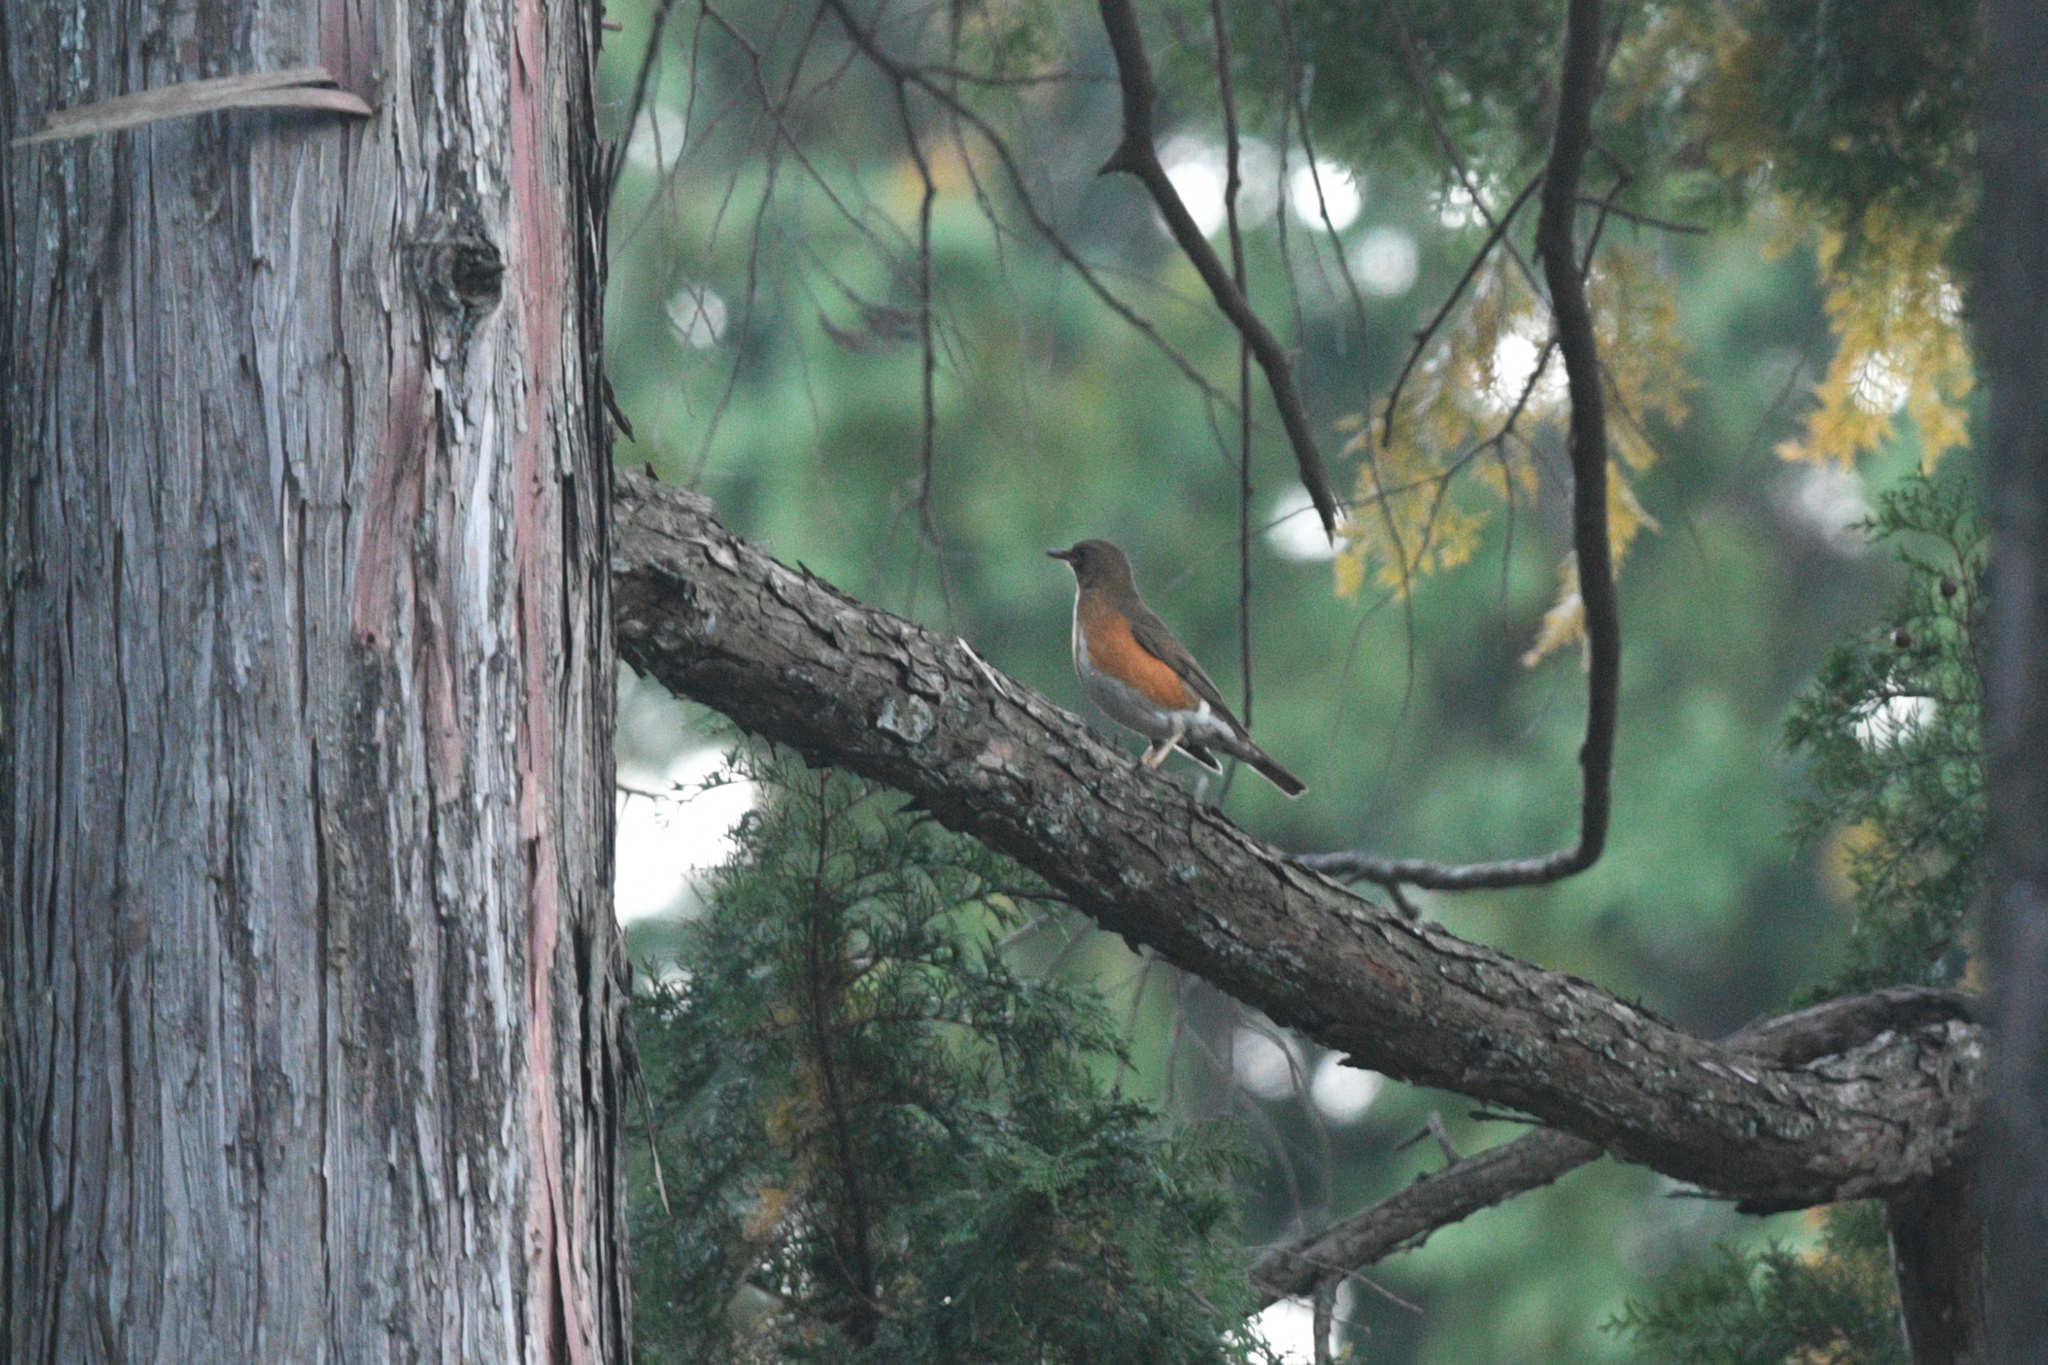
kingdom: Animalia
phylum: Chordata
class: Aves
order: Passeriformes
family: Turdidae
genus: Turdus
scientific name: Turdus chrysolaus
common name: Brown-headed thrush
